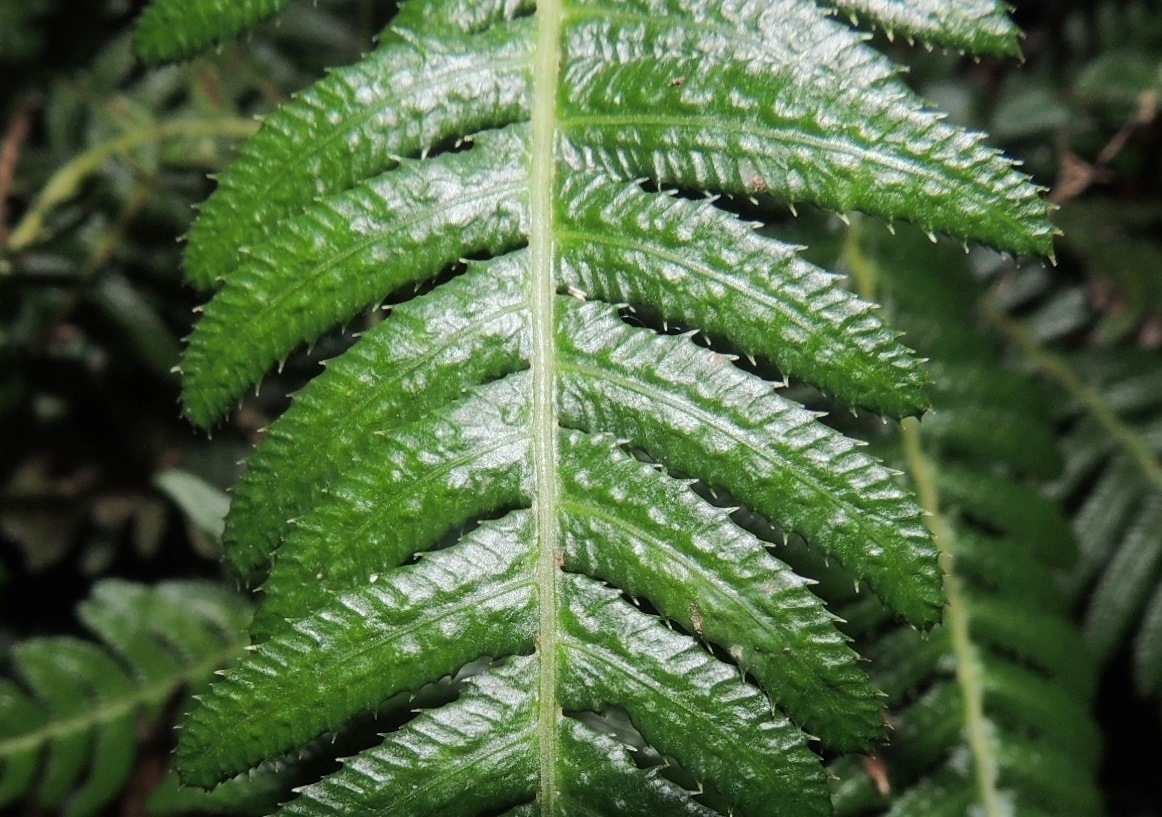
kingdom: Plantae
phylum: Tracheophyta
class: Polypodiopsida
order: Polypodiales
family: Blechnaceae
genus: Doodia
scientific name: Doodia australis
